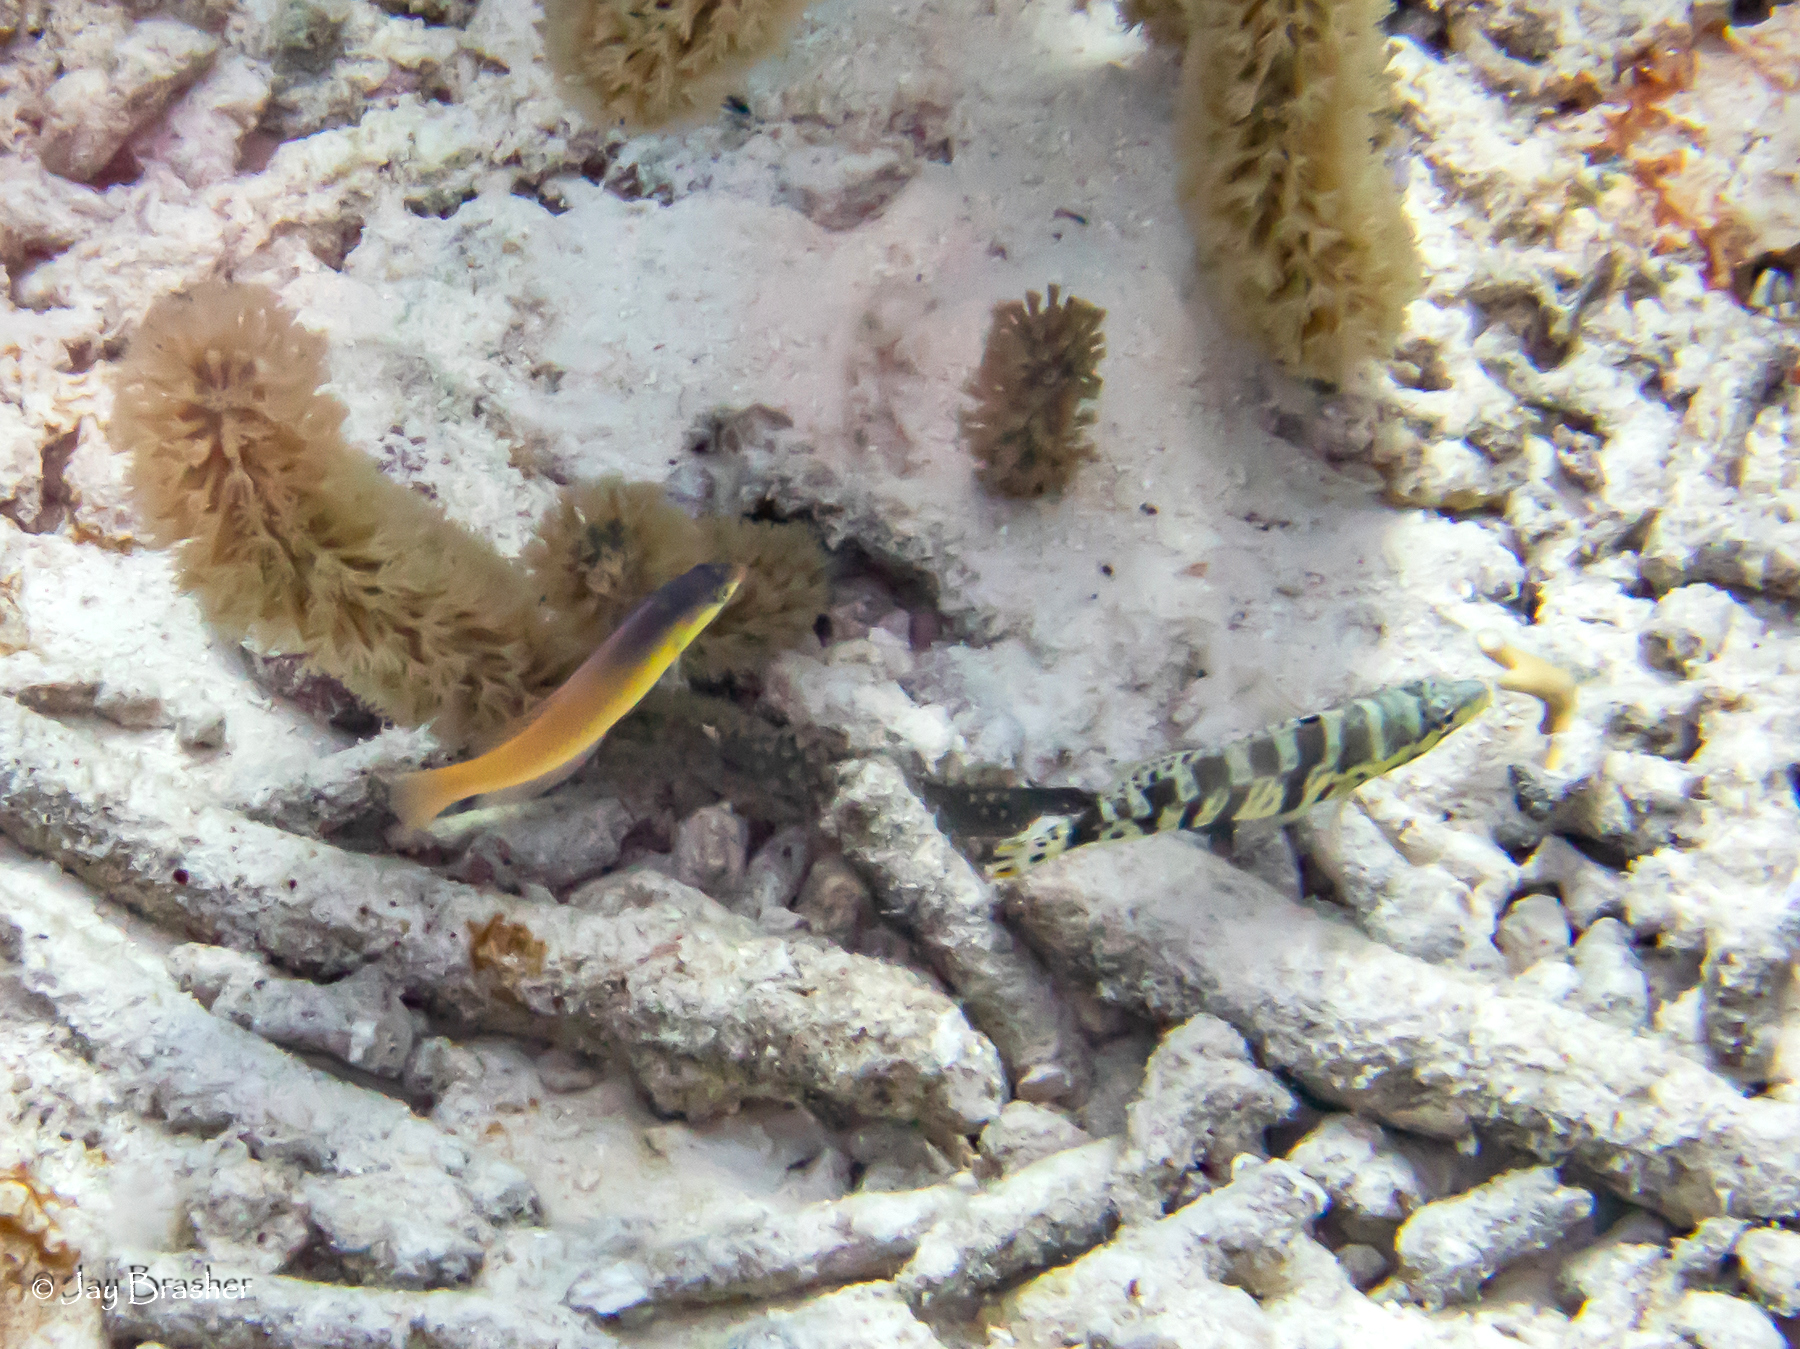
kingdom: Animalia
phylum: Chordata
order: Perciformes
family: Serranidae
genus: Serranus
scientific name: Serranus tigrinus
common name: Harlequin bass
